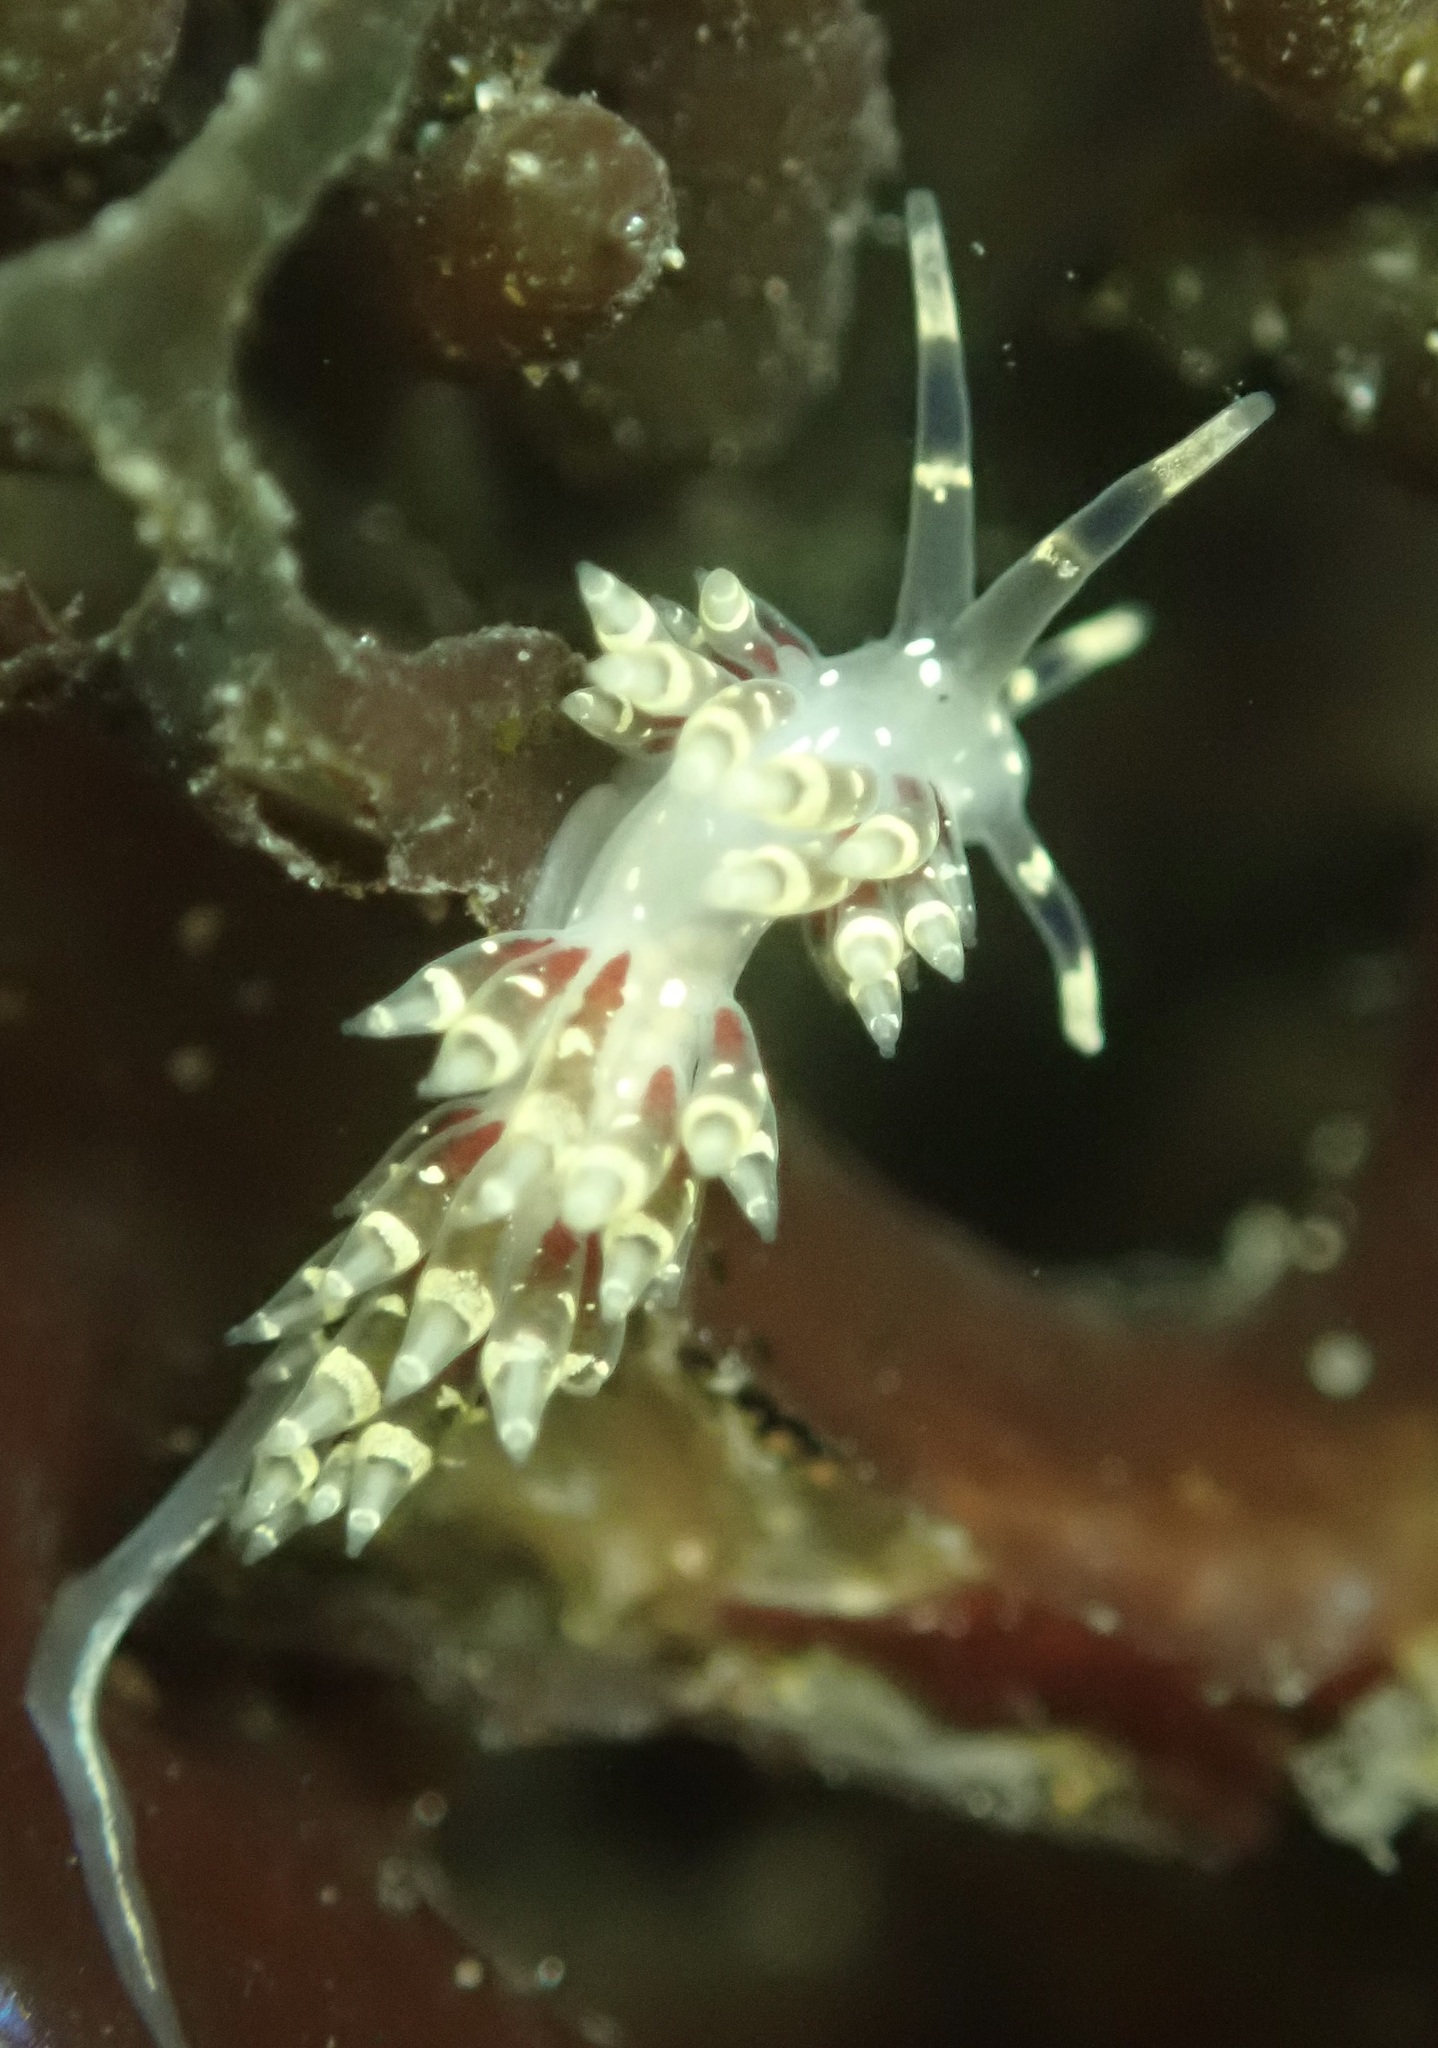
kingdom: Animalia
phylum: Mollusca
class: Gastropoda
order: Nudibranchia
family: Abronicidae
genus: Abronica
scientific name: Abronica abronia
